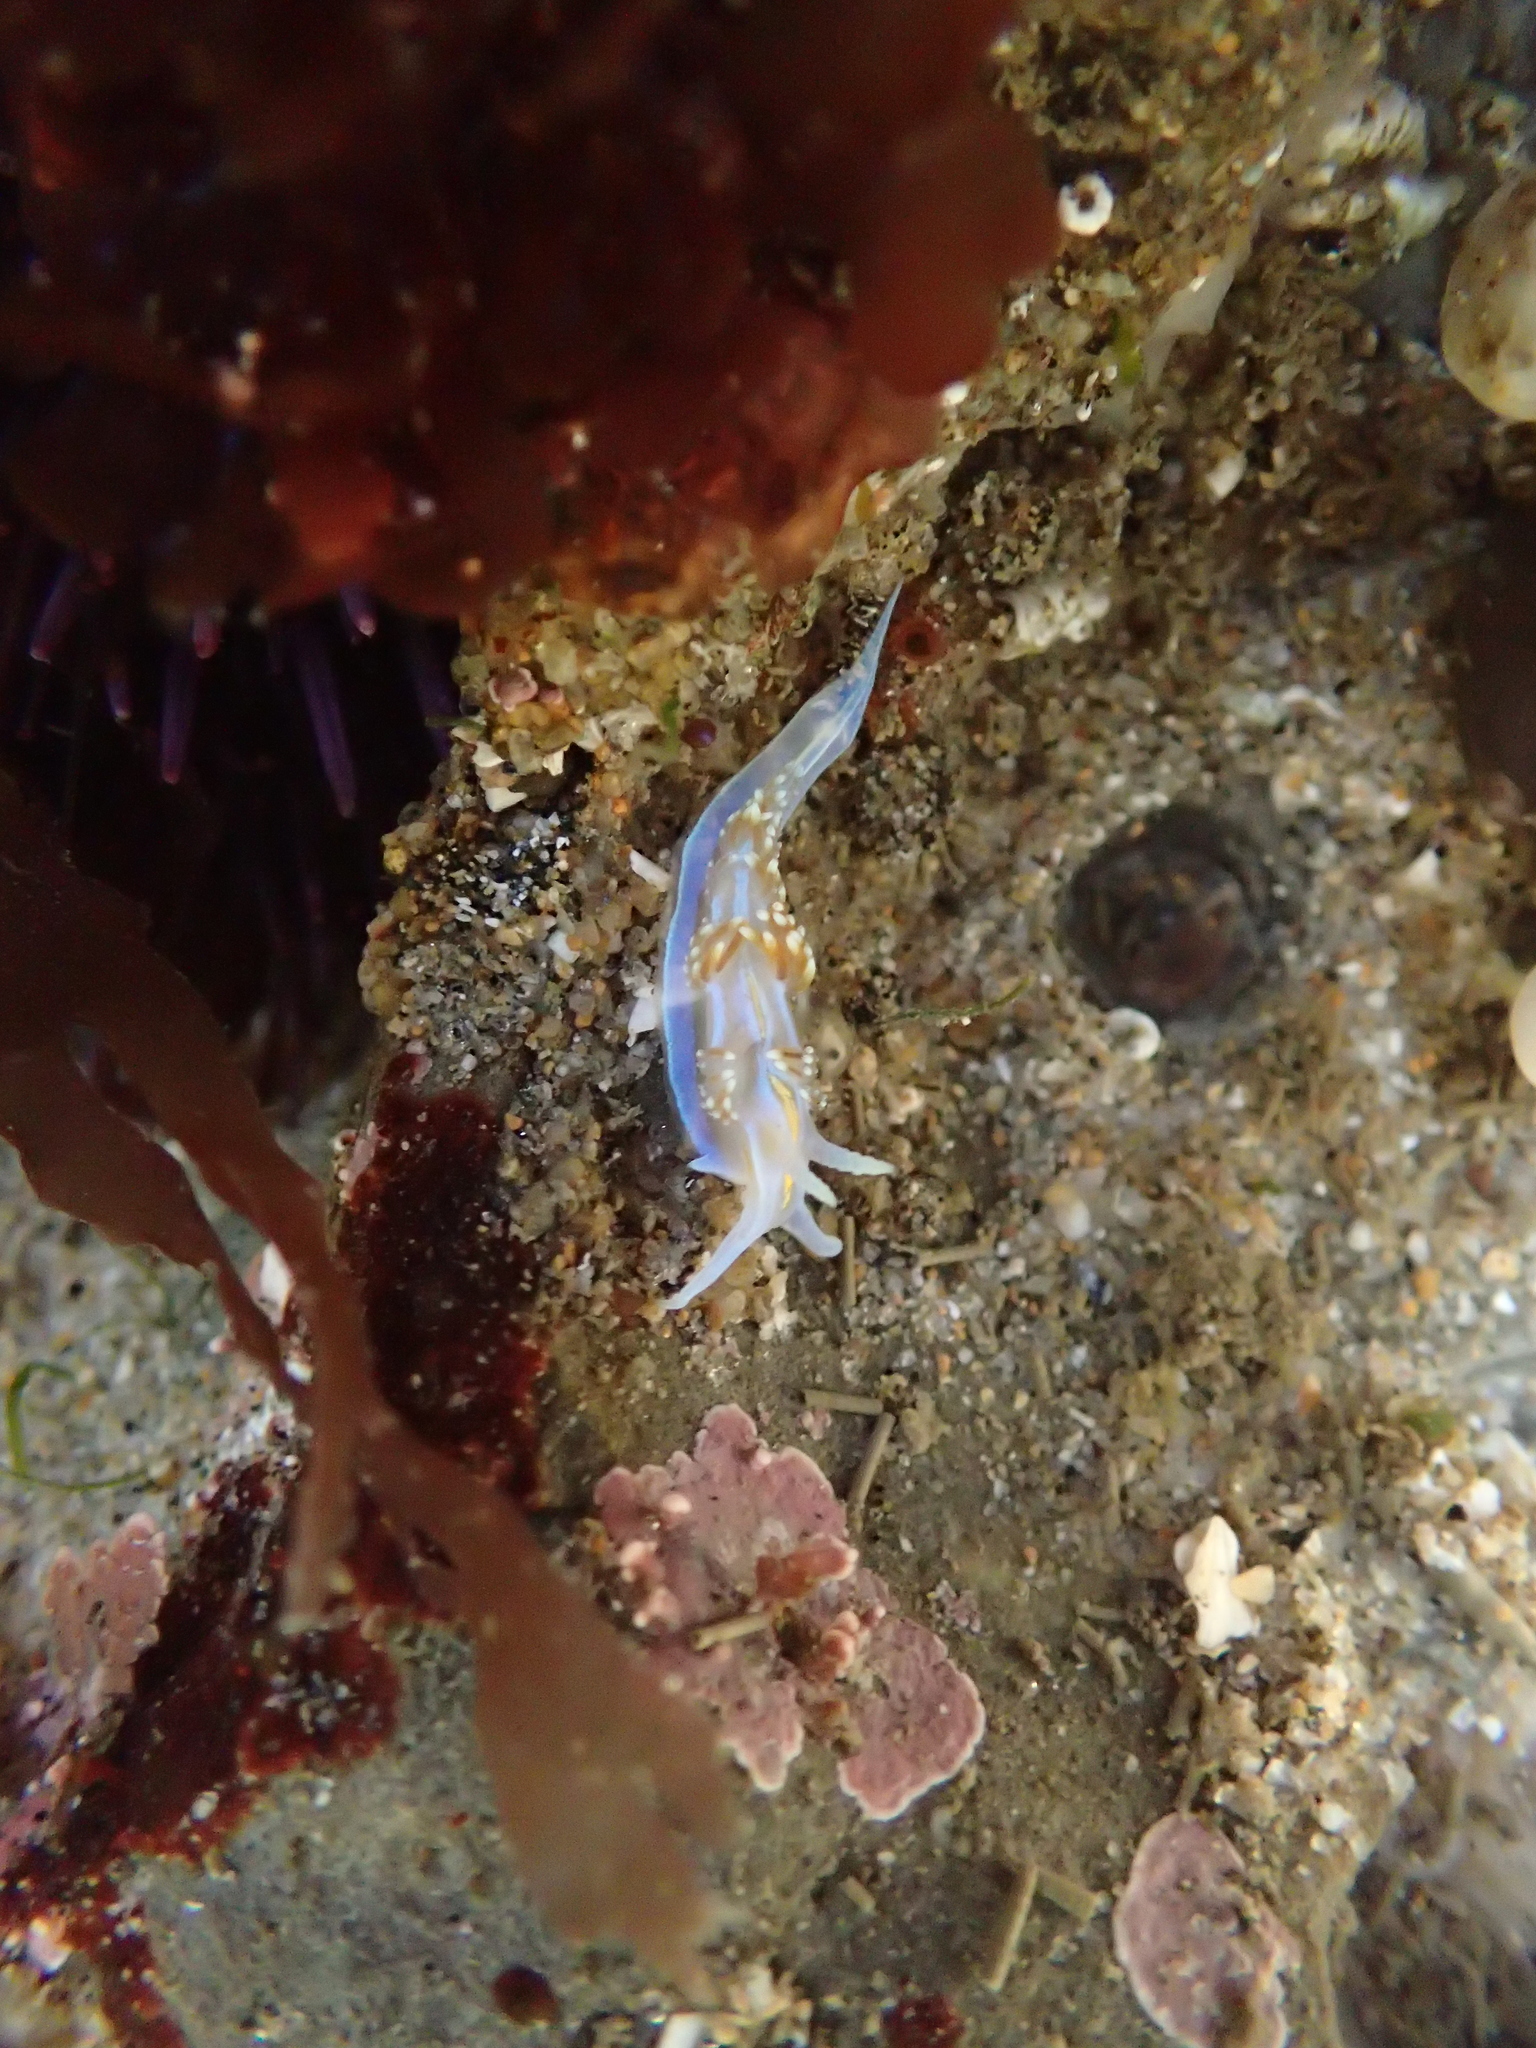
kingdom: Animalia
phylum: Mollusca
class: Gastropoda
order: Nudibranchia
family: Myrrhinidae
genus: Hermissenda
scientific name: Hermissenda opalescens
